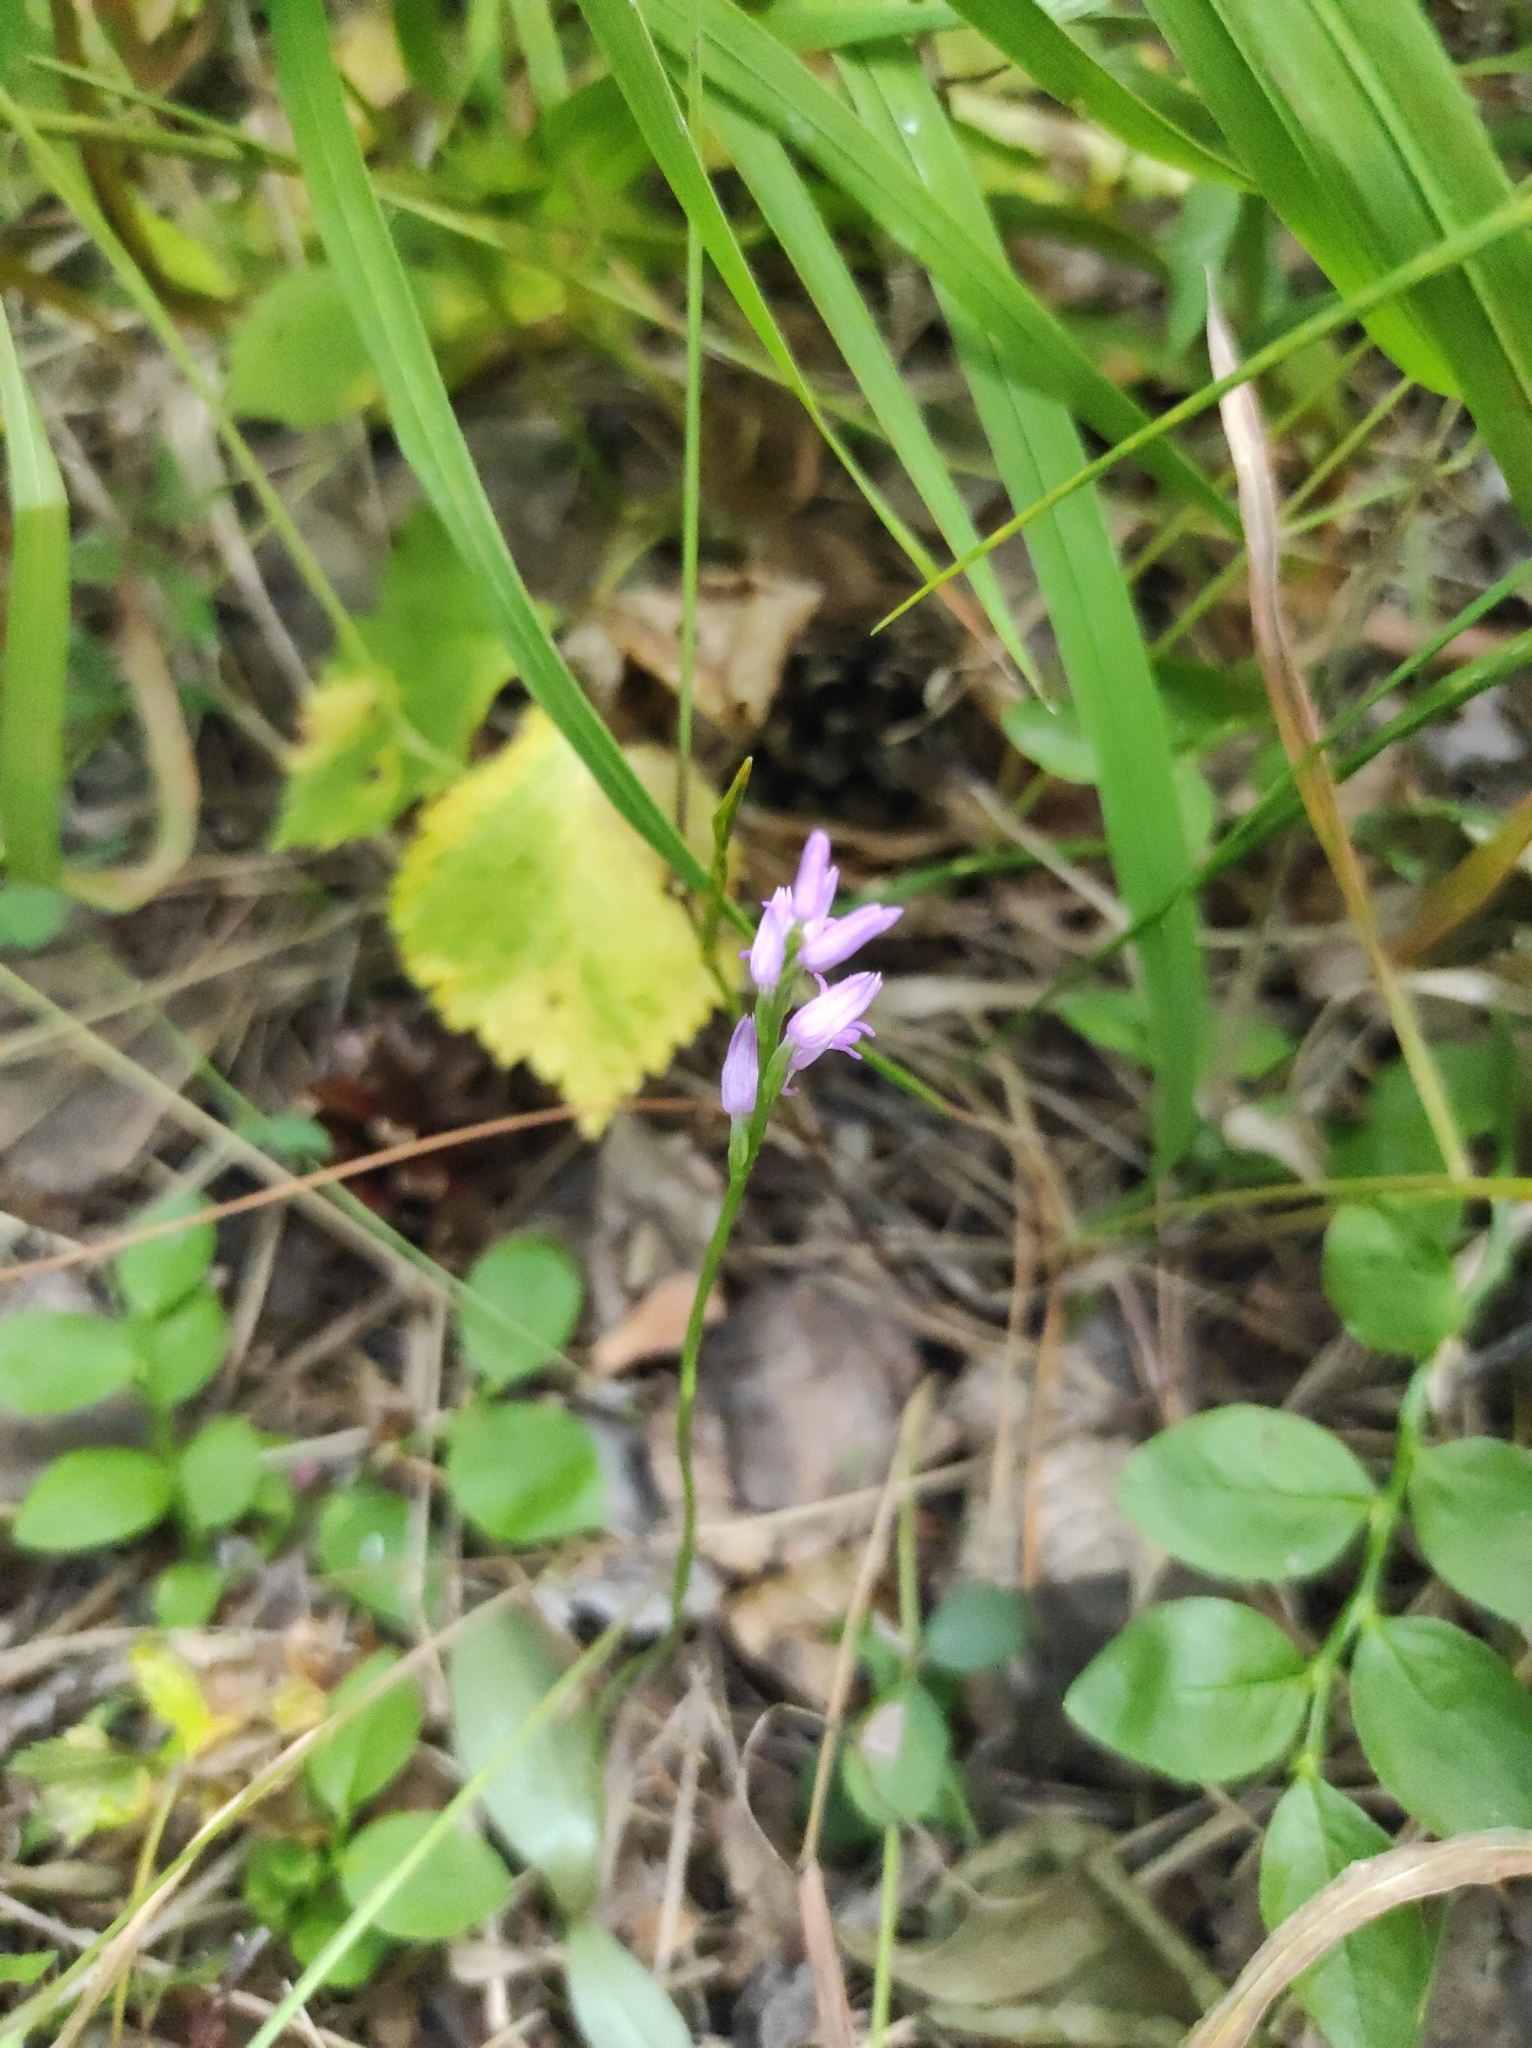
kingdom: Plantae
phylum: Tracheophyta
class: Liliopsida
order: Asparagales
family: Orchidaceae
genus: Hemipilia
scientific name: Hemipilia cucullata
